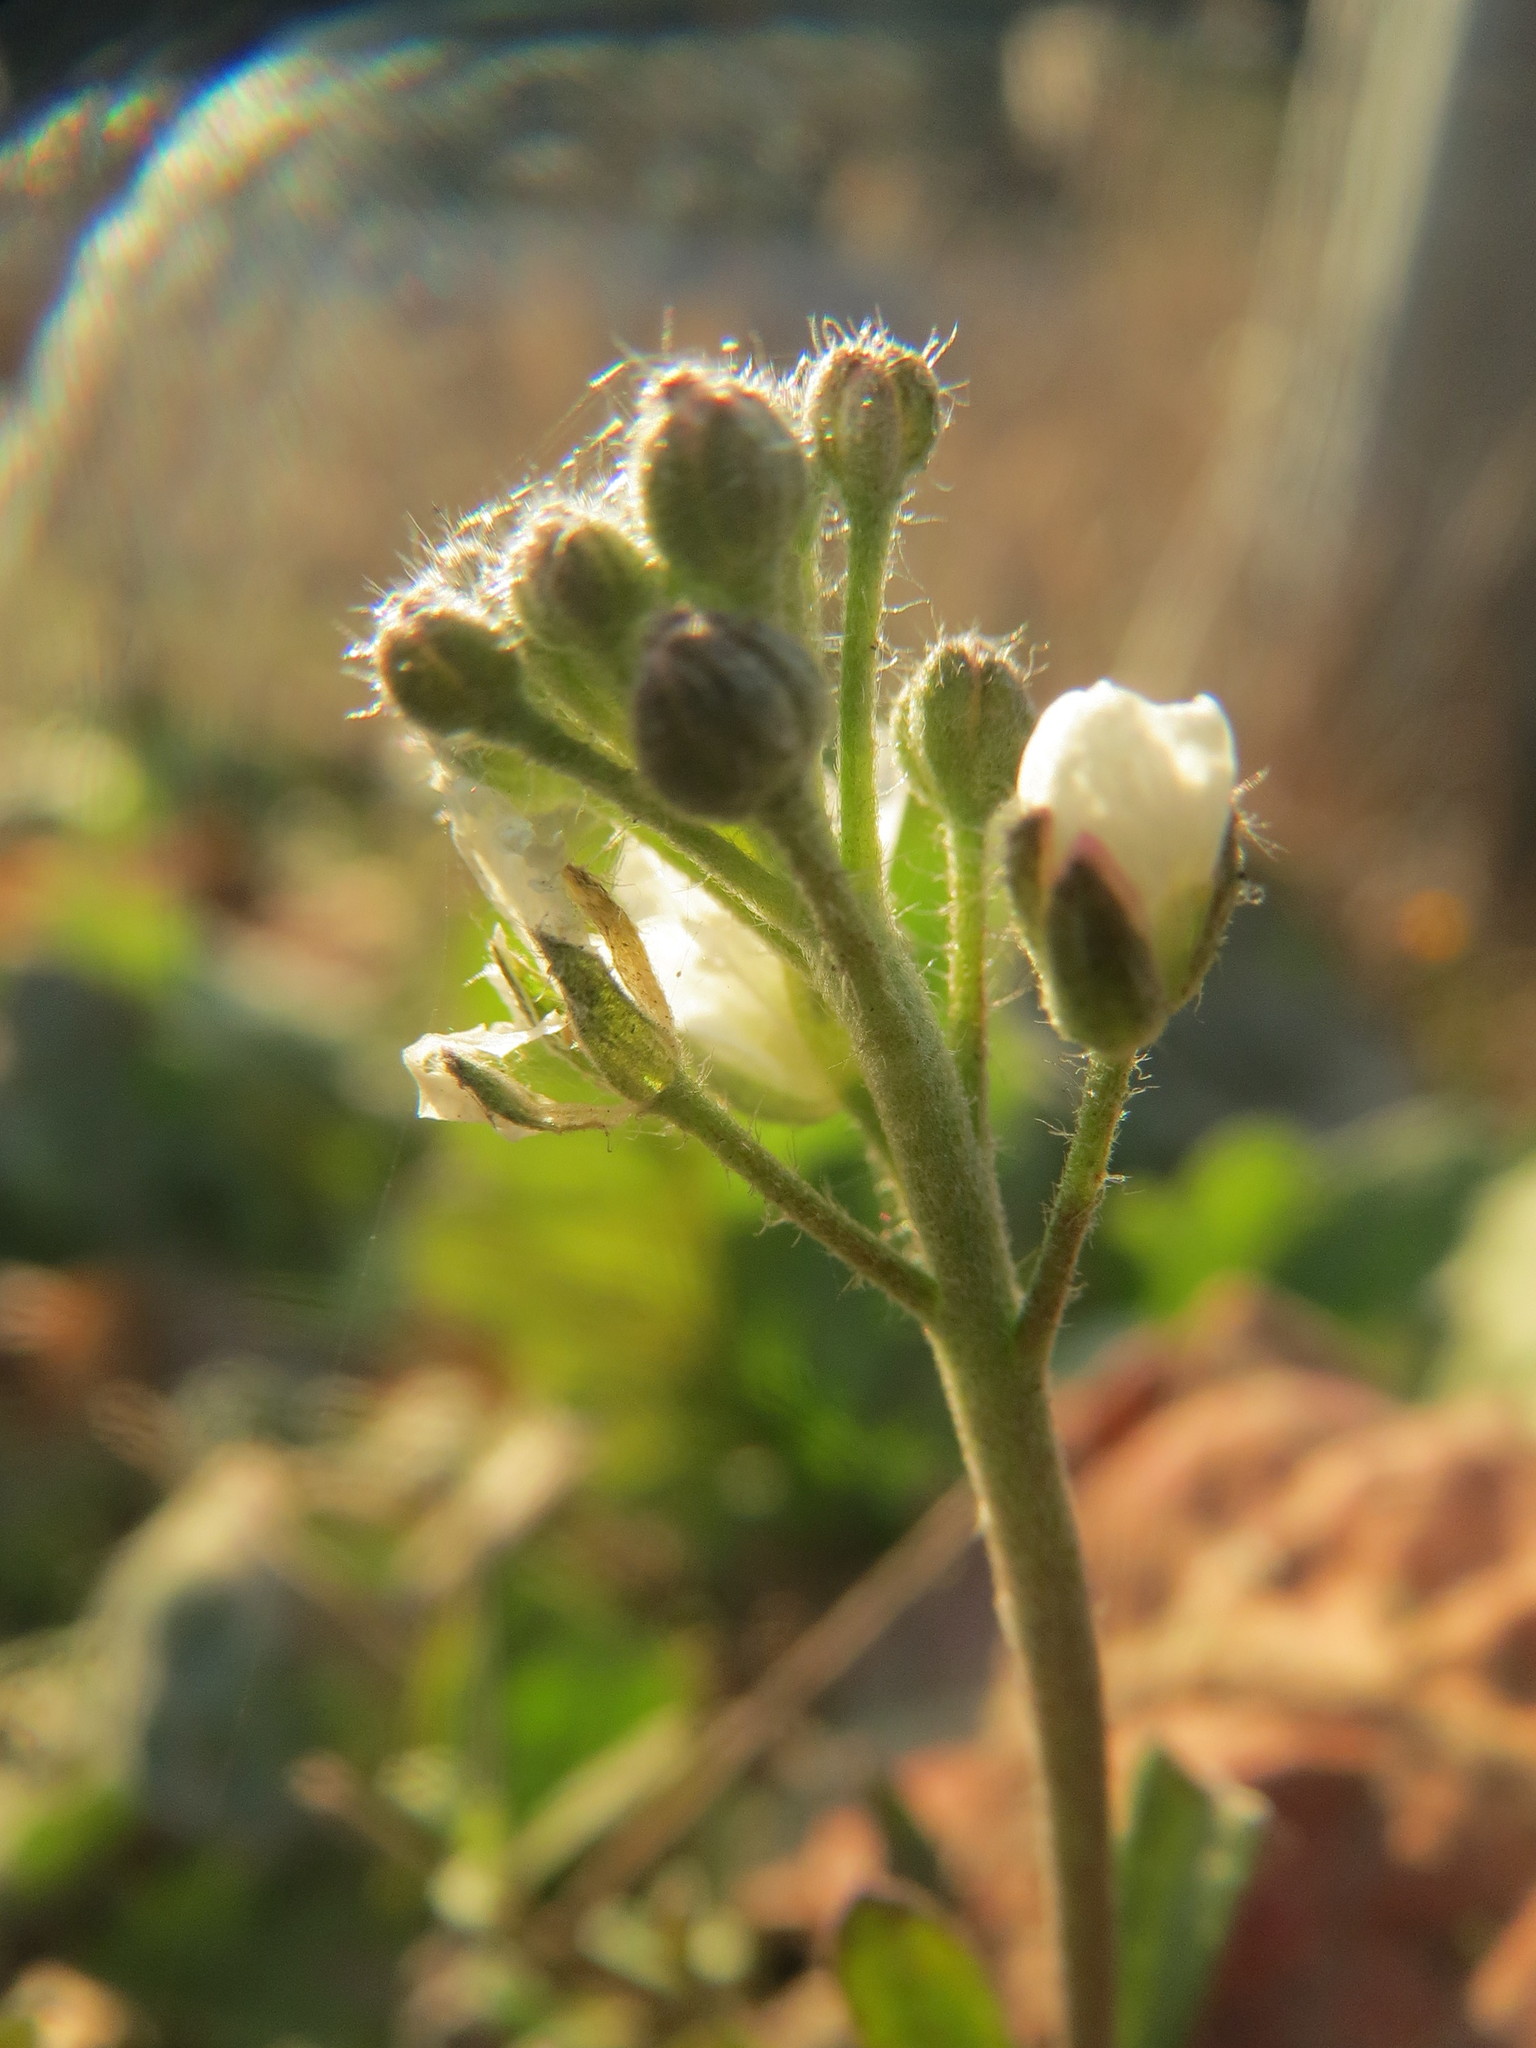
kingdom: Plantae
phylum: Tracheophyta
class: Magnoliopsida
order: Brassicales
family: Brassicaceae
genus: Berteroa
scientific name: Berteroa incana
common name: Hoary alison
